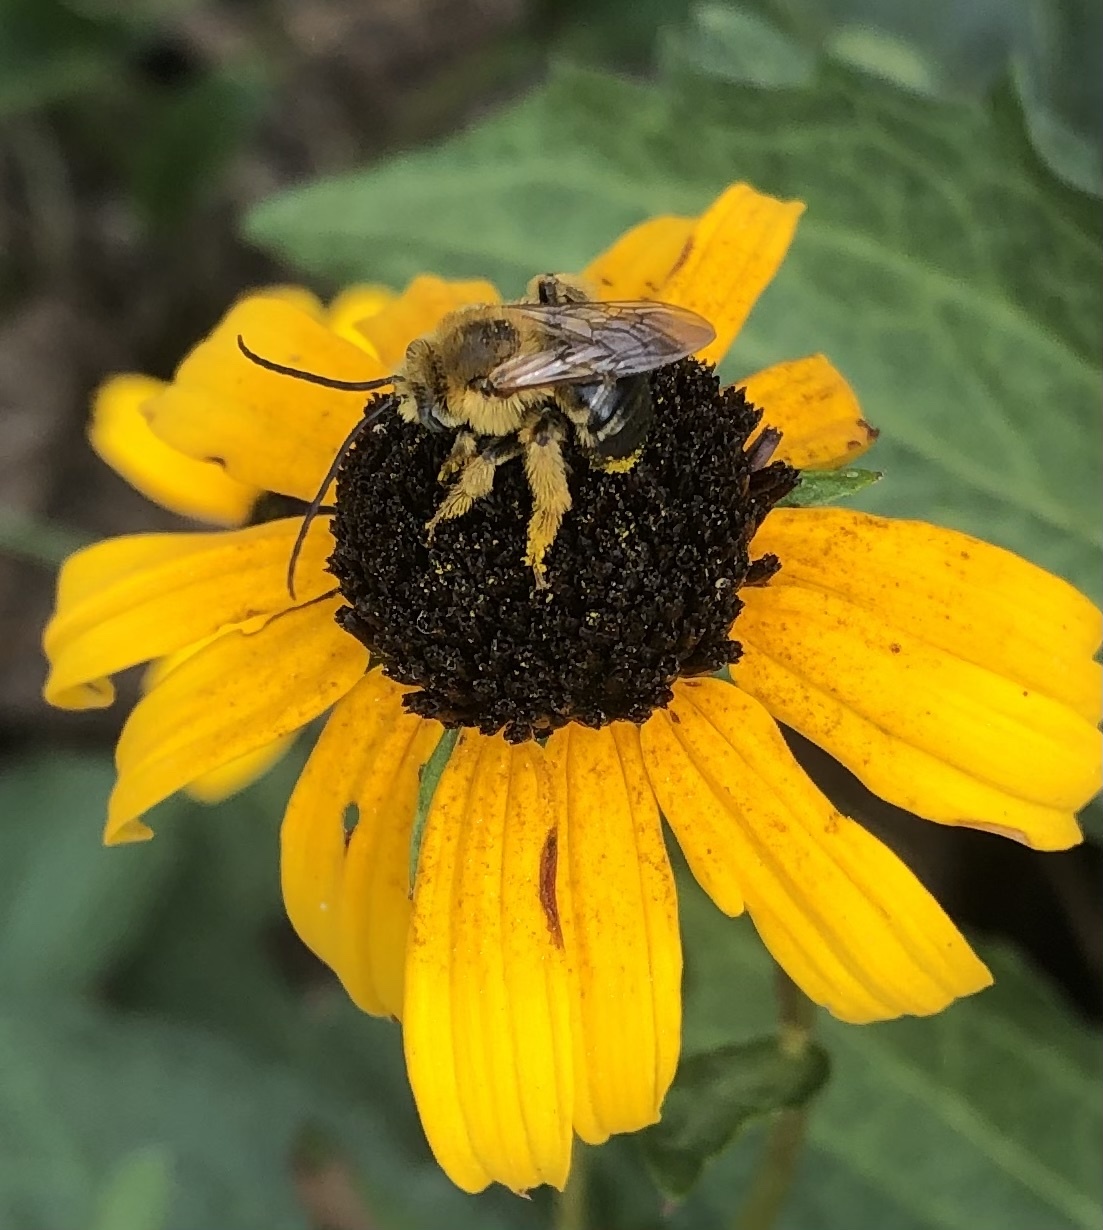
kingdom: Animalia
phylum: Arthropoda
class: Insecta
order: Hymenoptera
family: Apidae
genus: Melissodes
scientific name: Melissodes dentiventris
